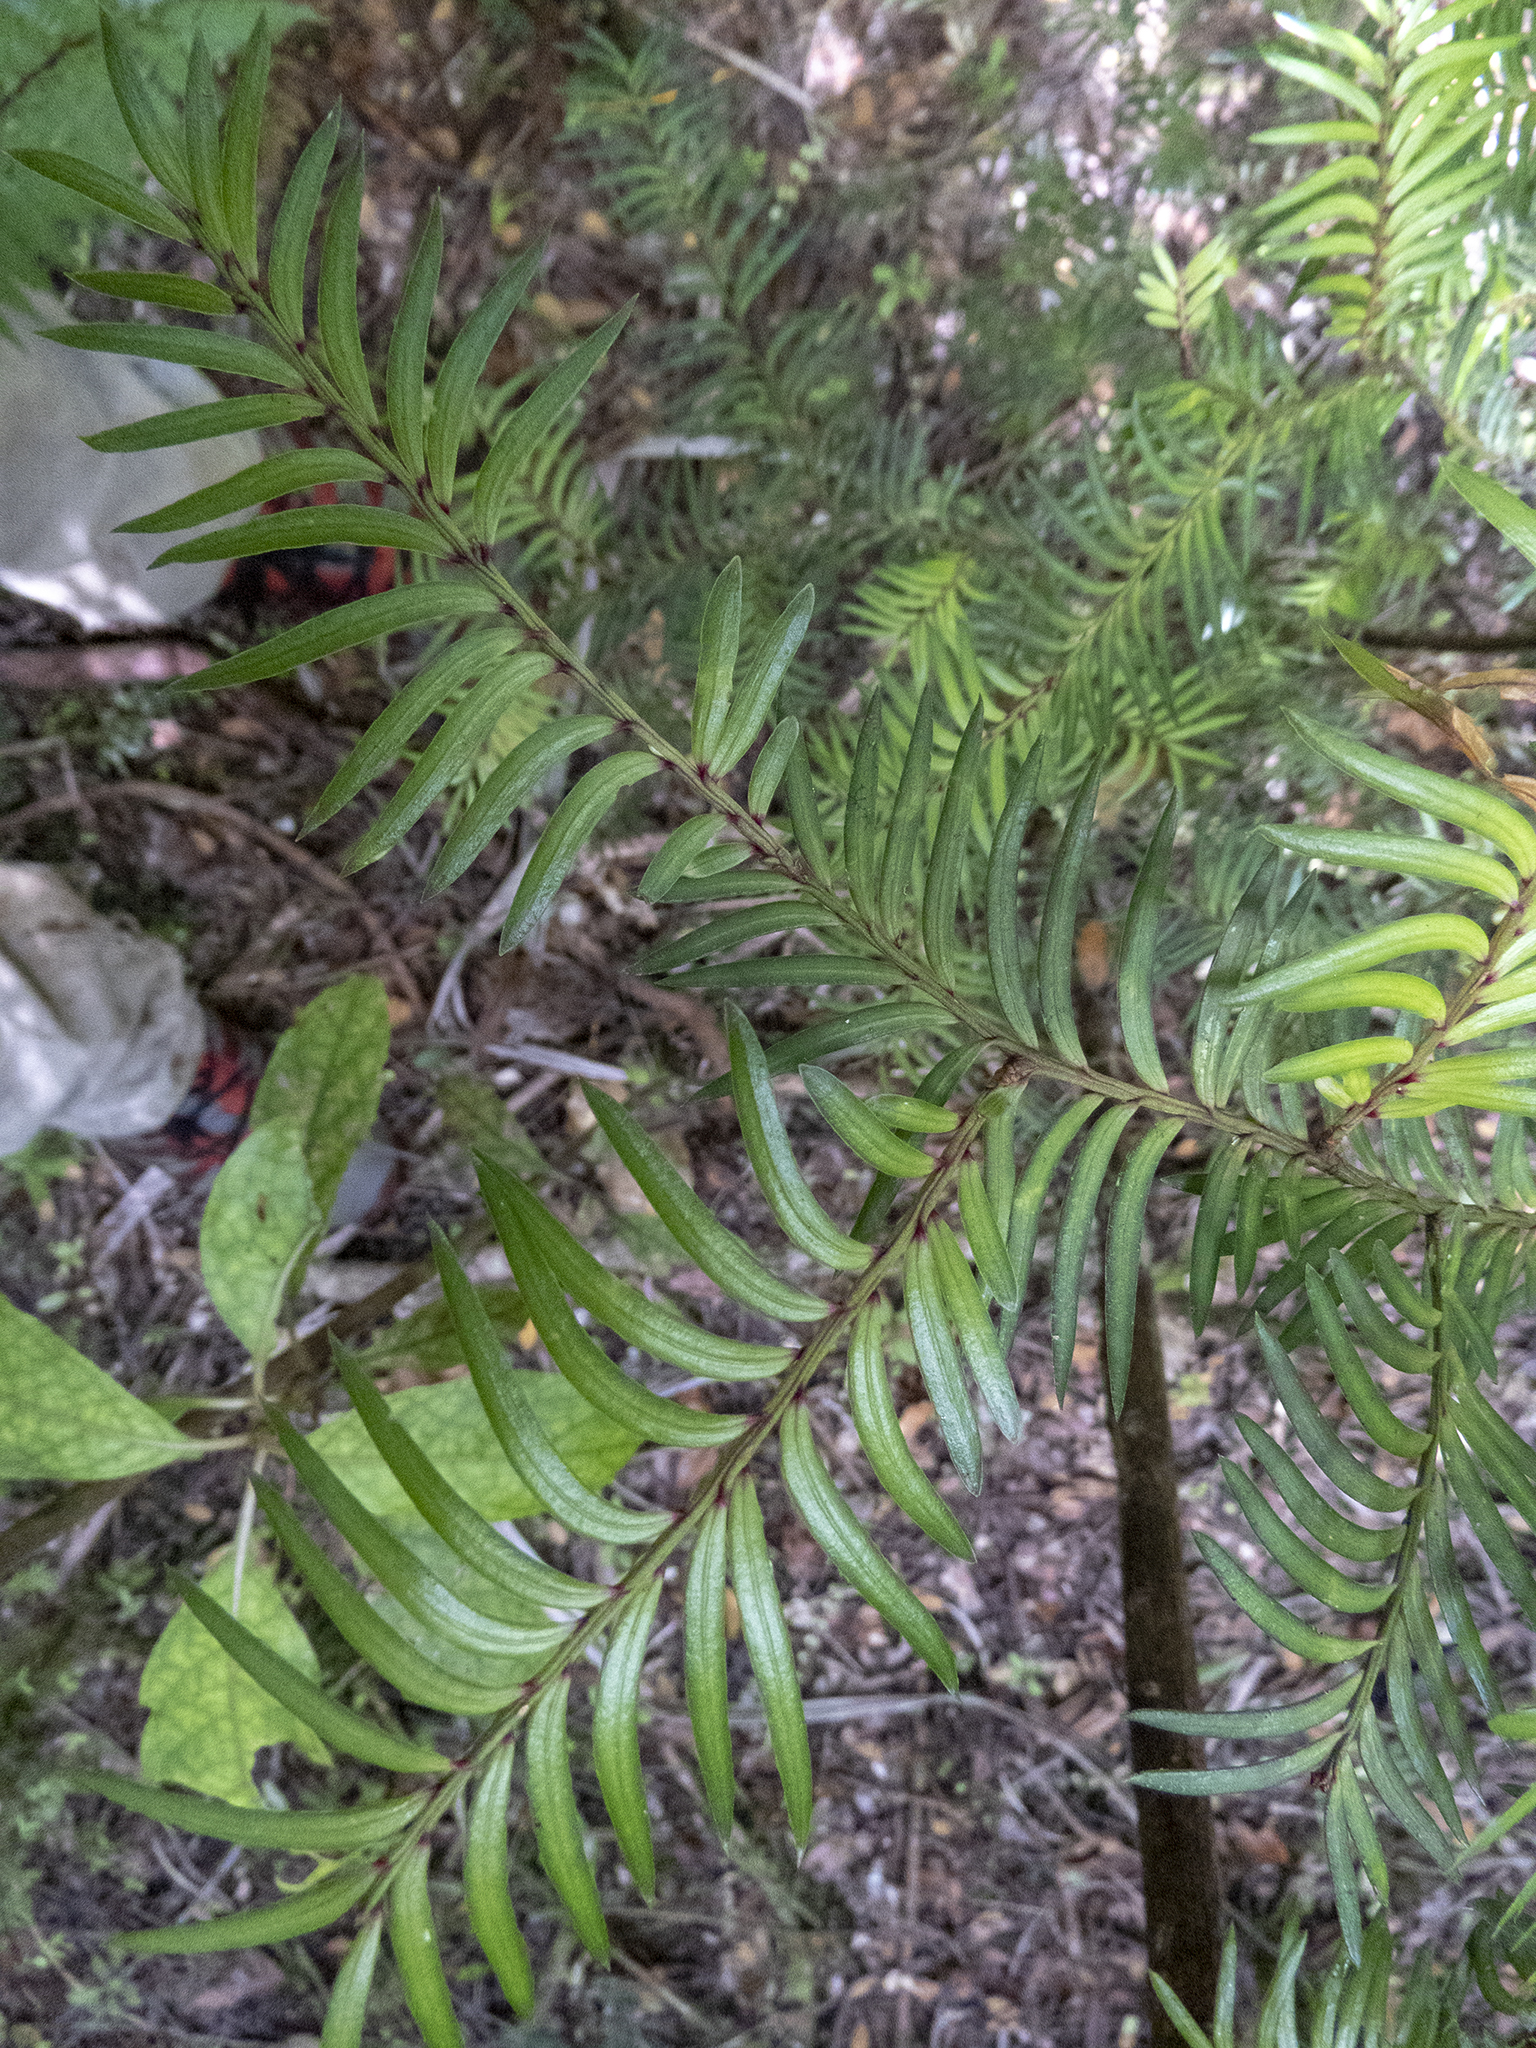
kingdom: Plantae
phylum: Tracheophyta
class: Pinopsida
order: Pinales
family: Podocarpaceae
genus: Prumnopitys
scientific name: Prumnopitys ferruginea
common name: Brown pine
